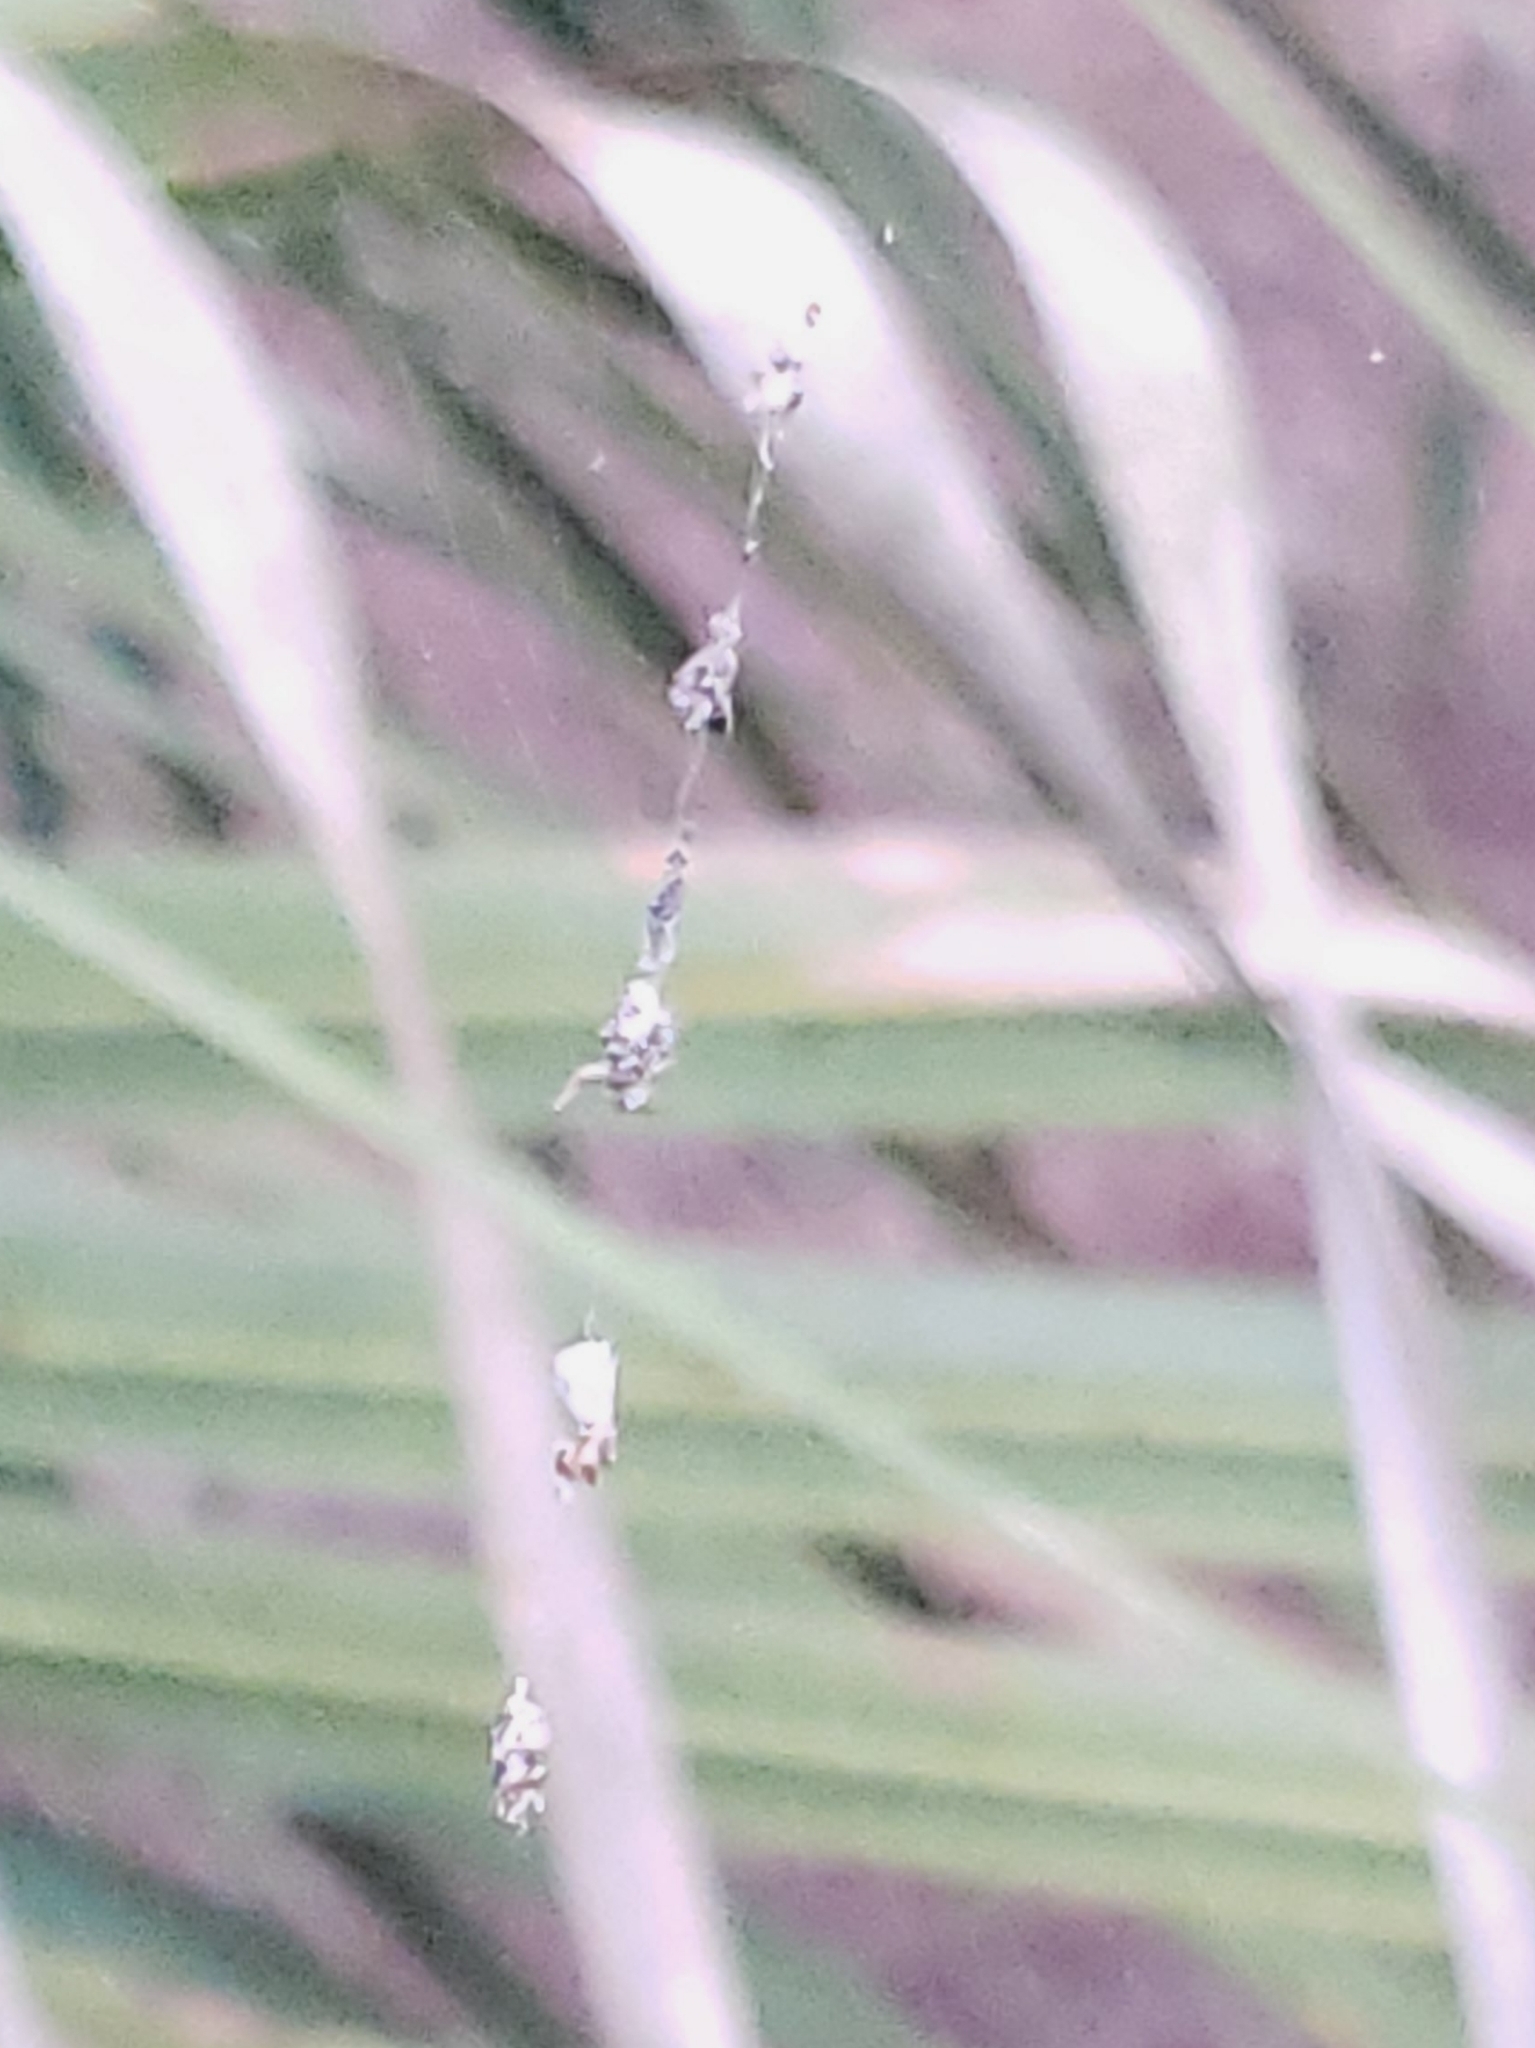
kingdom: Animalia
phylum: Arthropoda
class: Arachnida
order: Araneae
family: Araneidae
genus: Cyclosa
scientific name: Cyclosa walckenaeri
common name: Orb weavers
